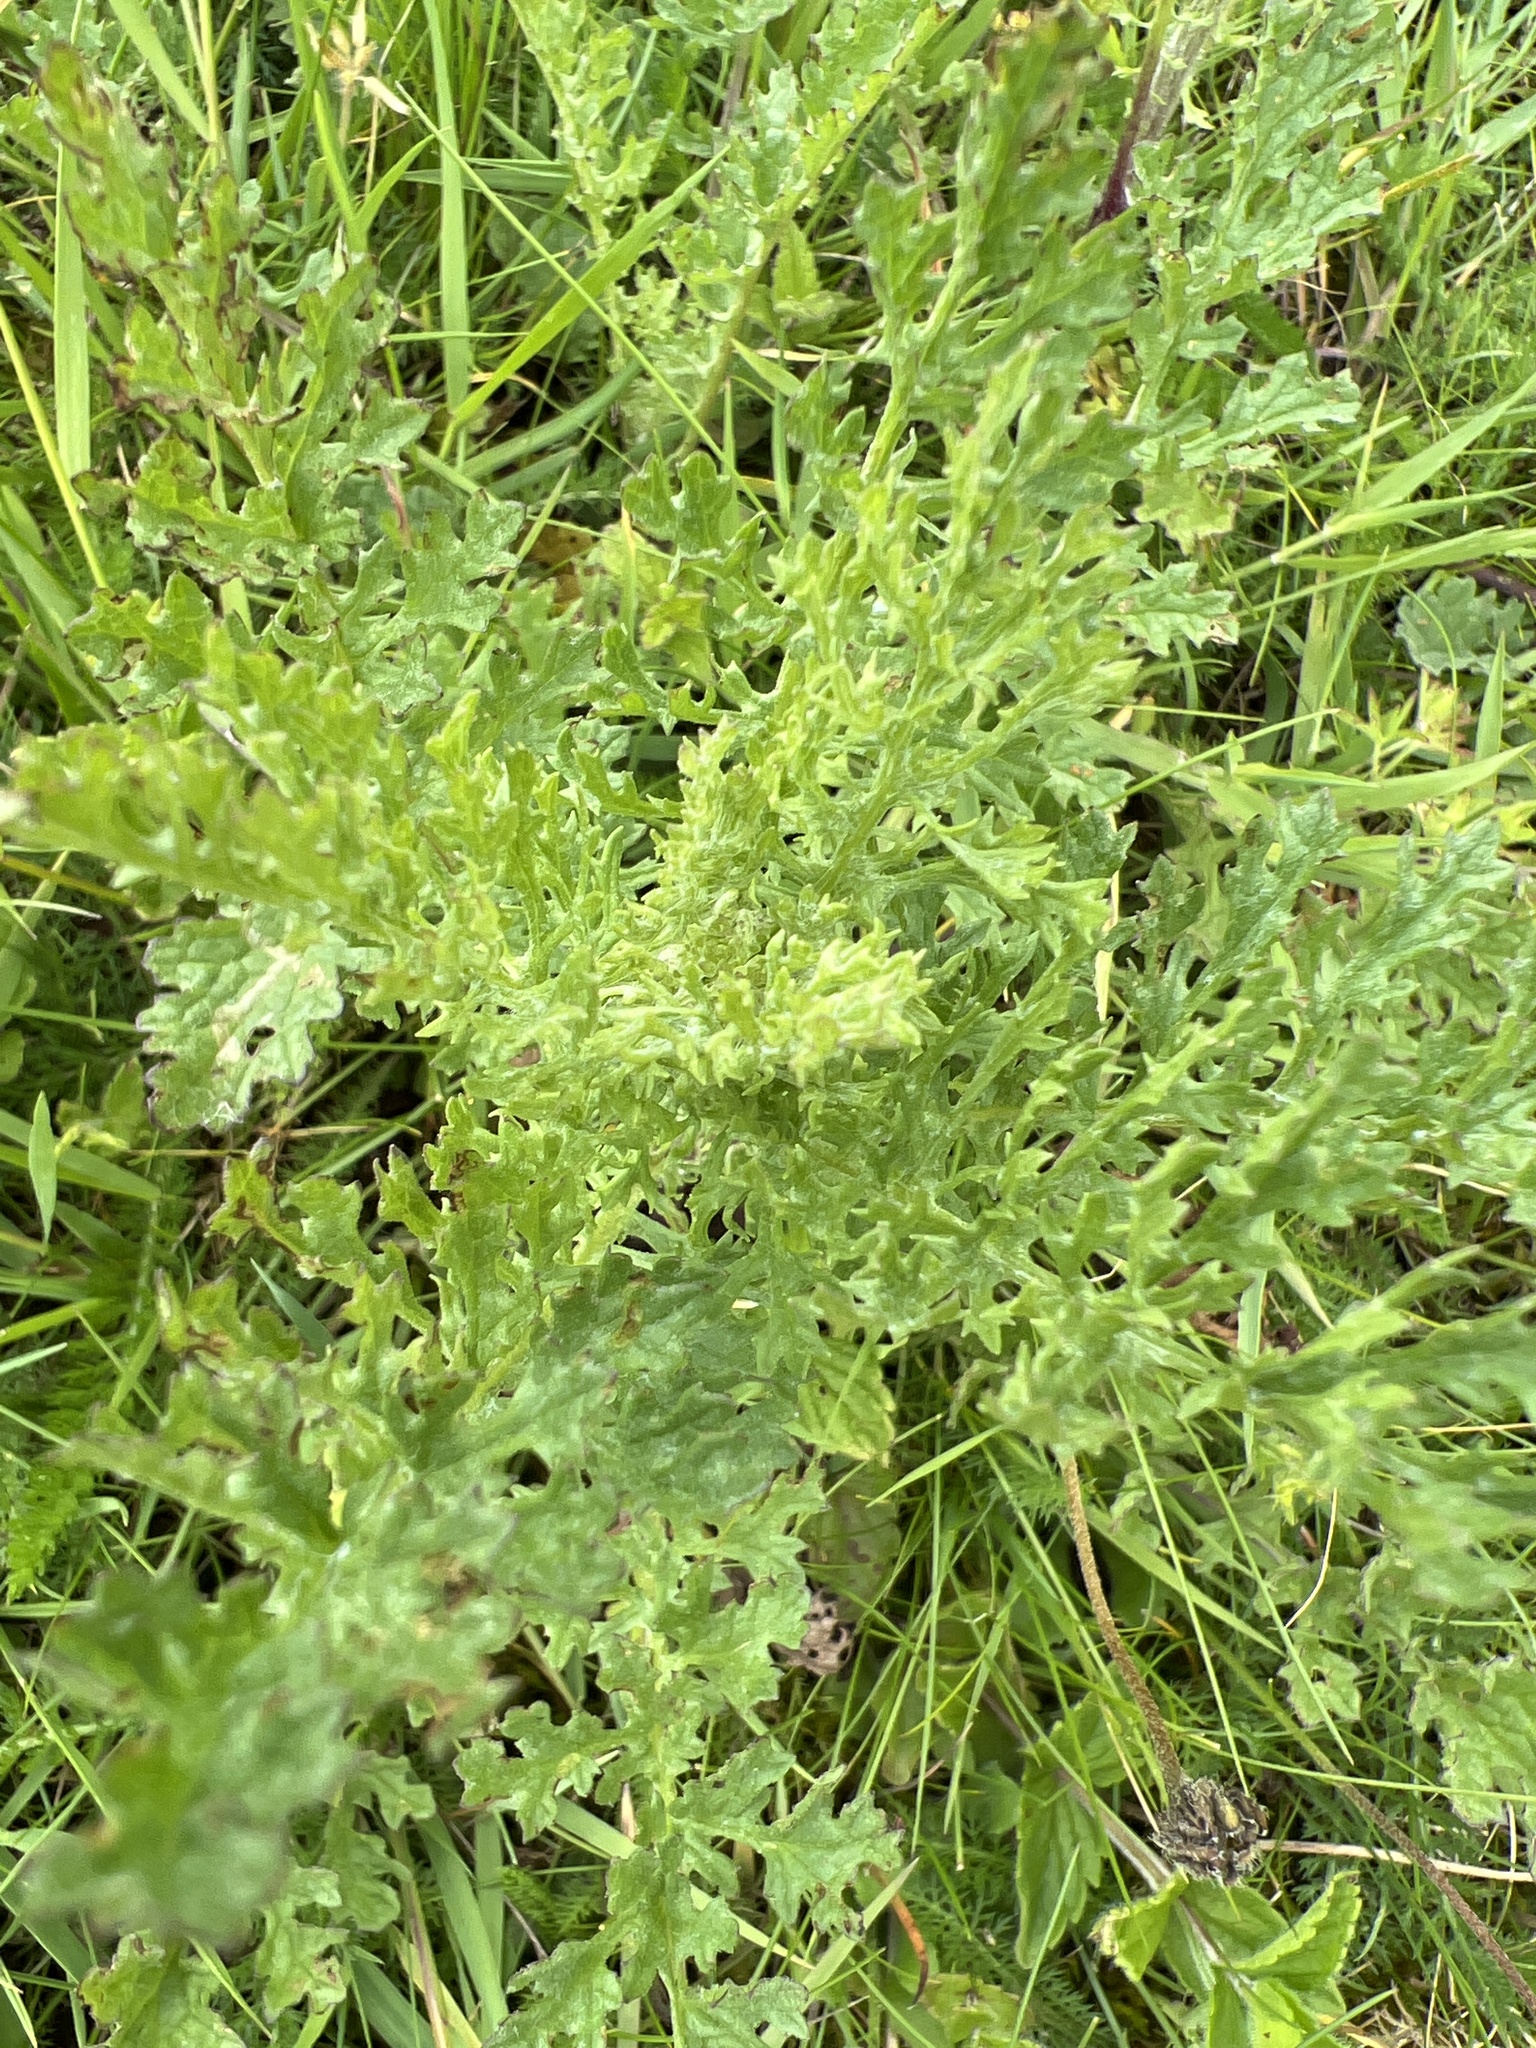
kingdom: Plantae
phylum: Tracheophyta
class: Magnoliopsida
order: Asterales
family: Asteraceae
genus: Jacobaea
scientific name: Jacobaea vulgaris
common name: Stinking willie
